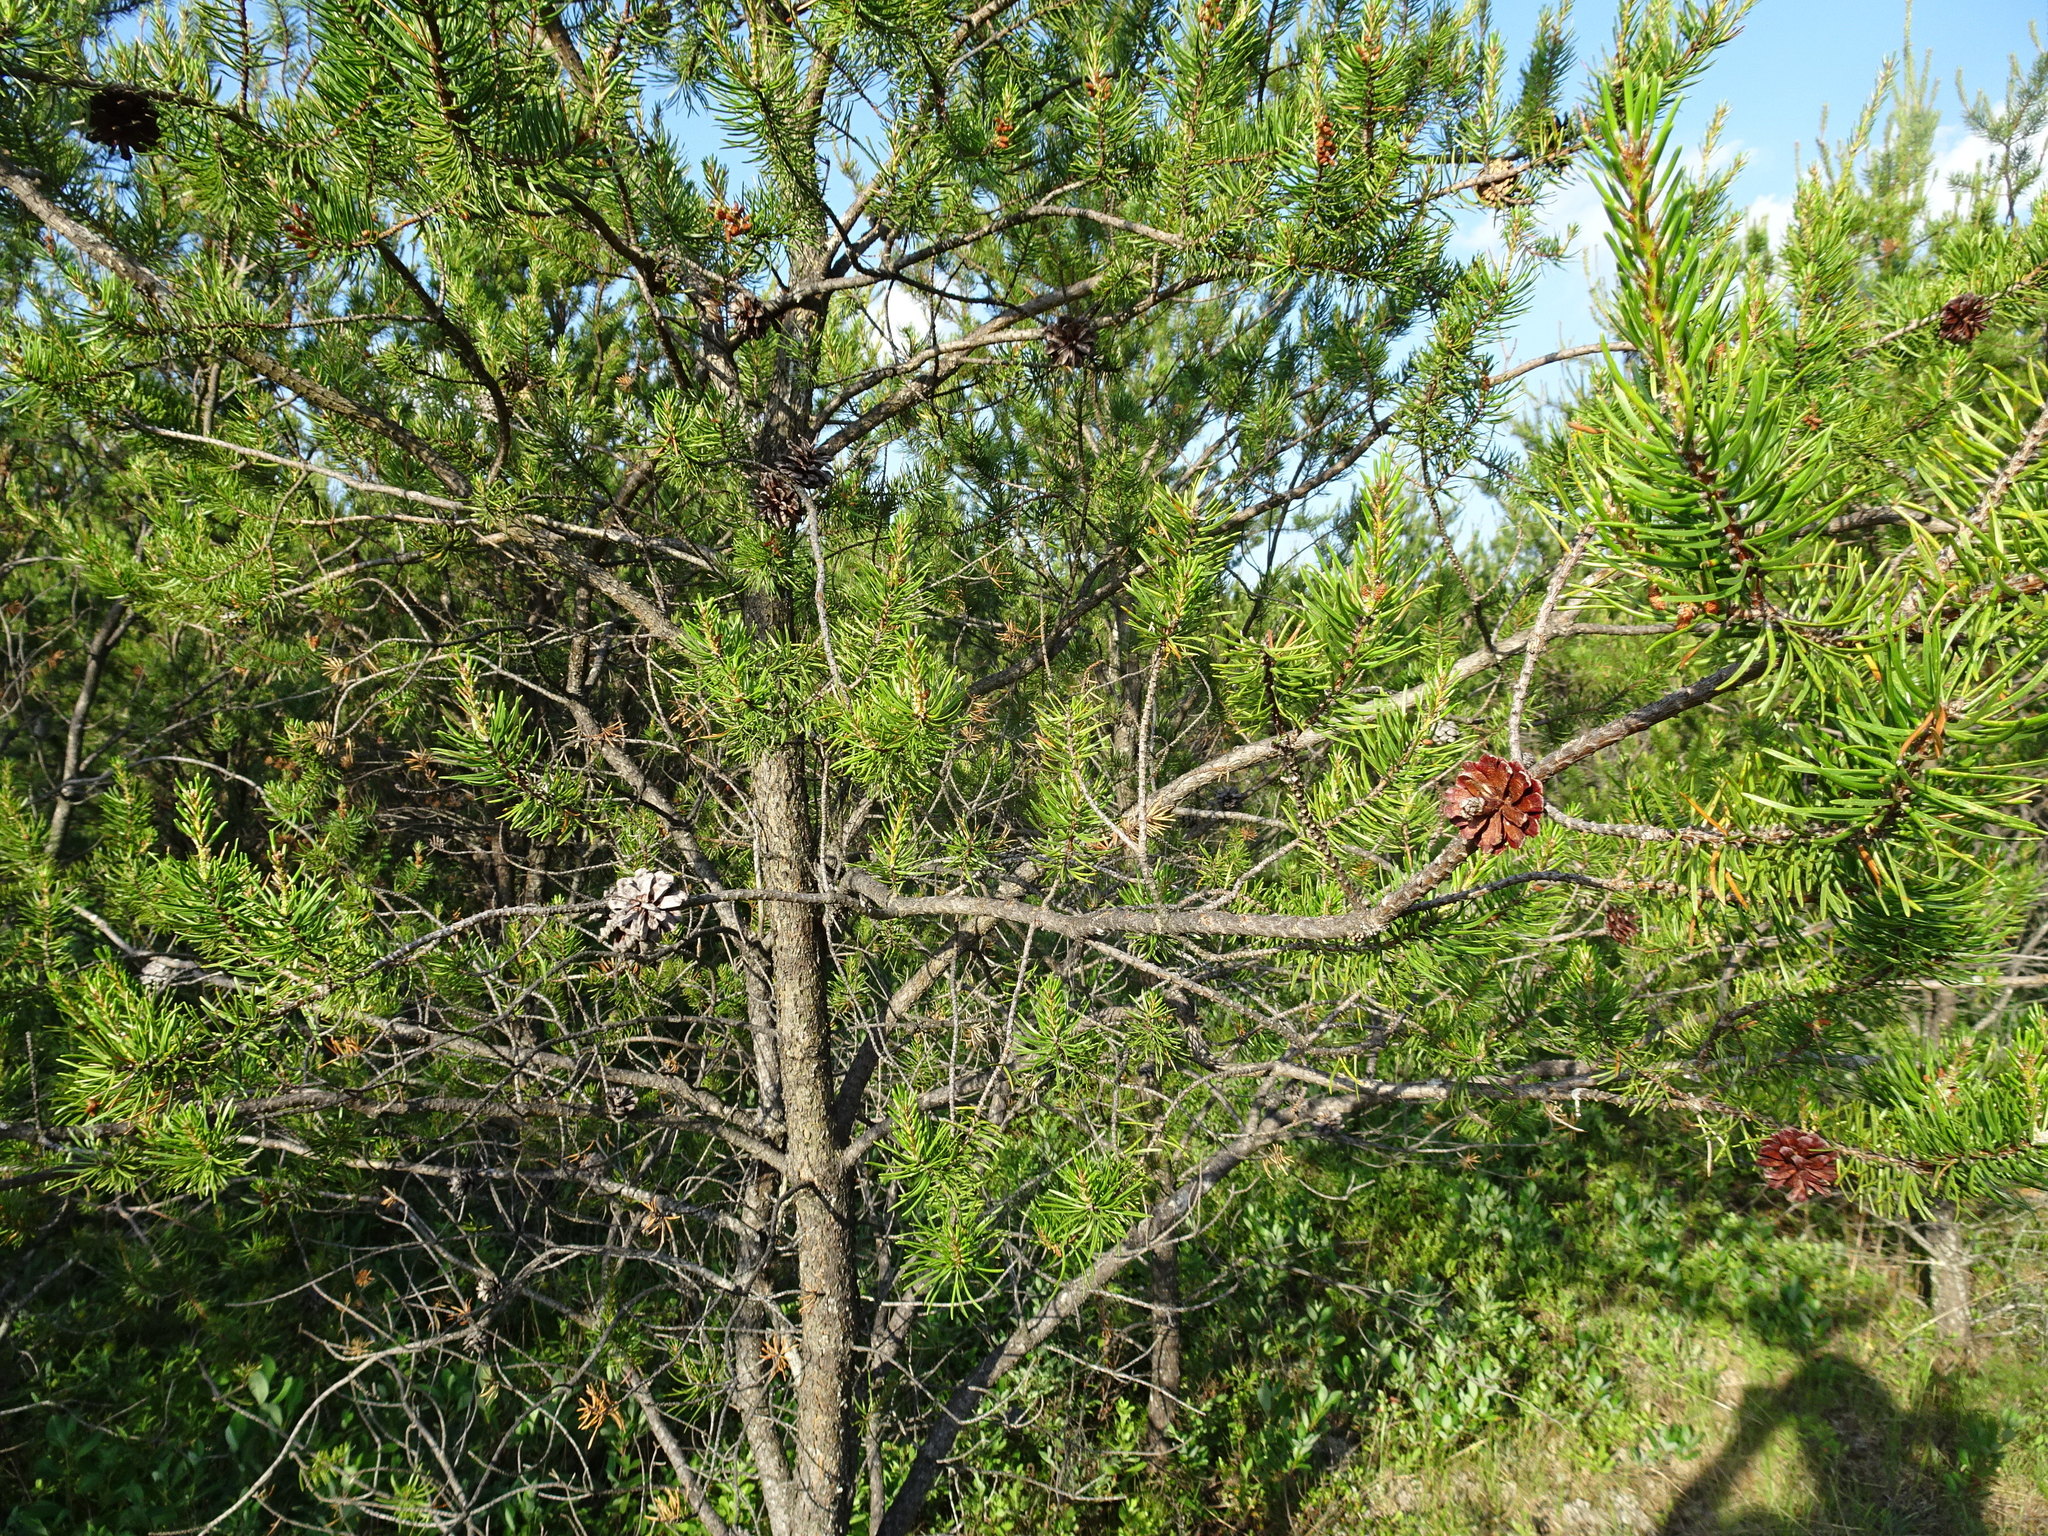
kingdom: Plantae
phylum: Tracheophyta
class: Pinopsida
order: Pinales
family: Pinaceae
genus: Pinus
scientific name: Pinus banksiana
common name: Jack pine
